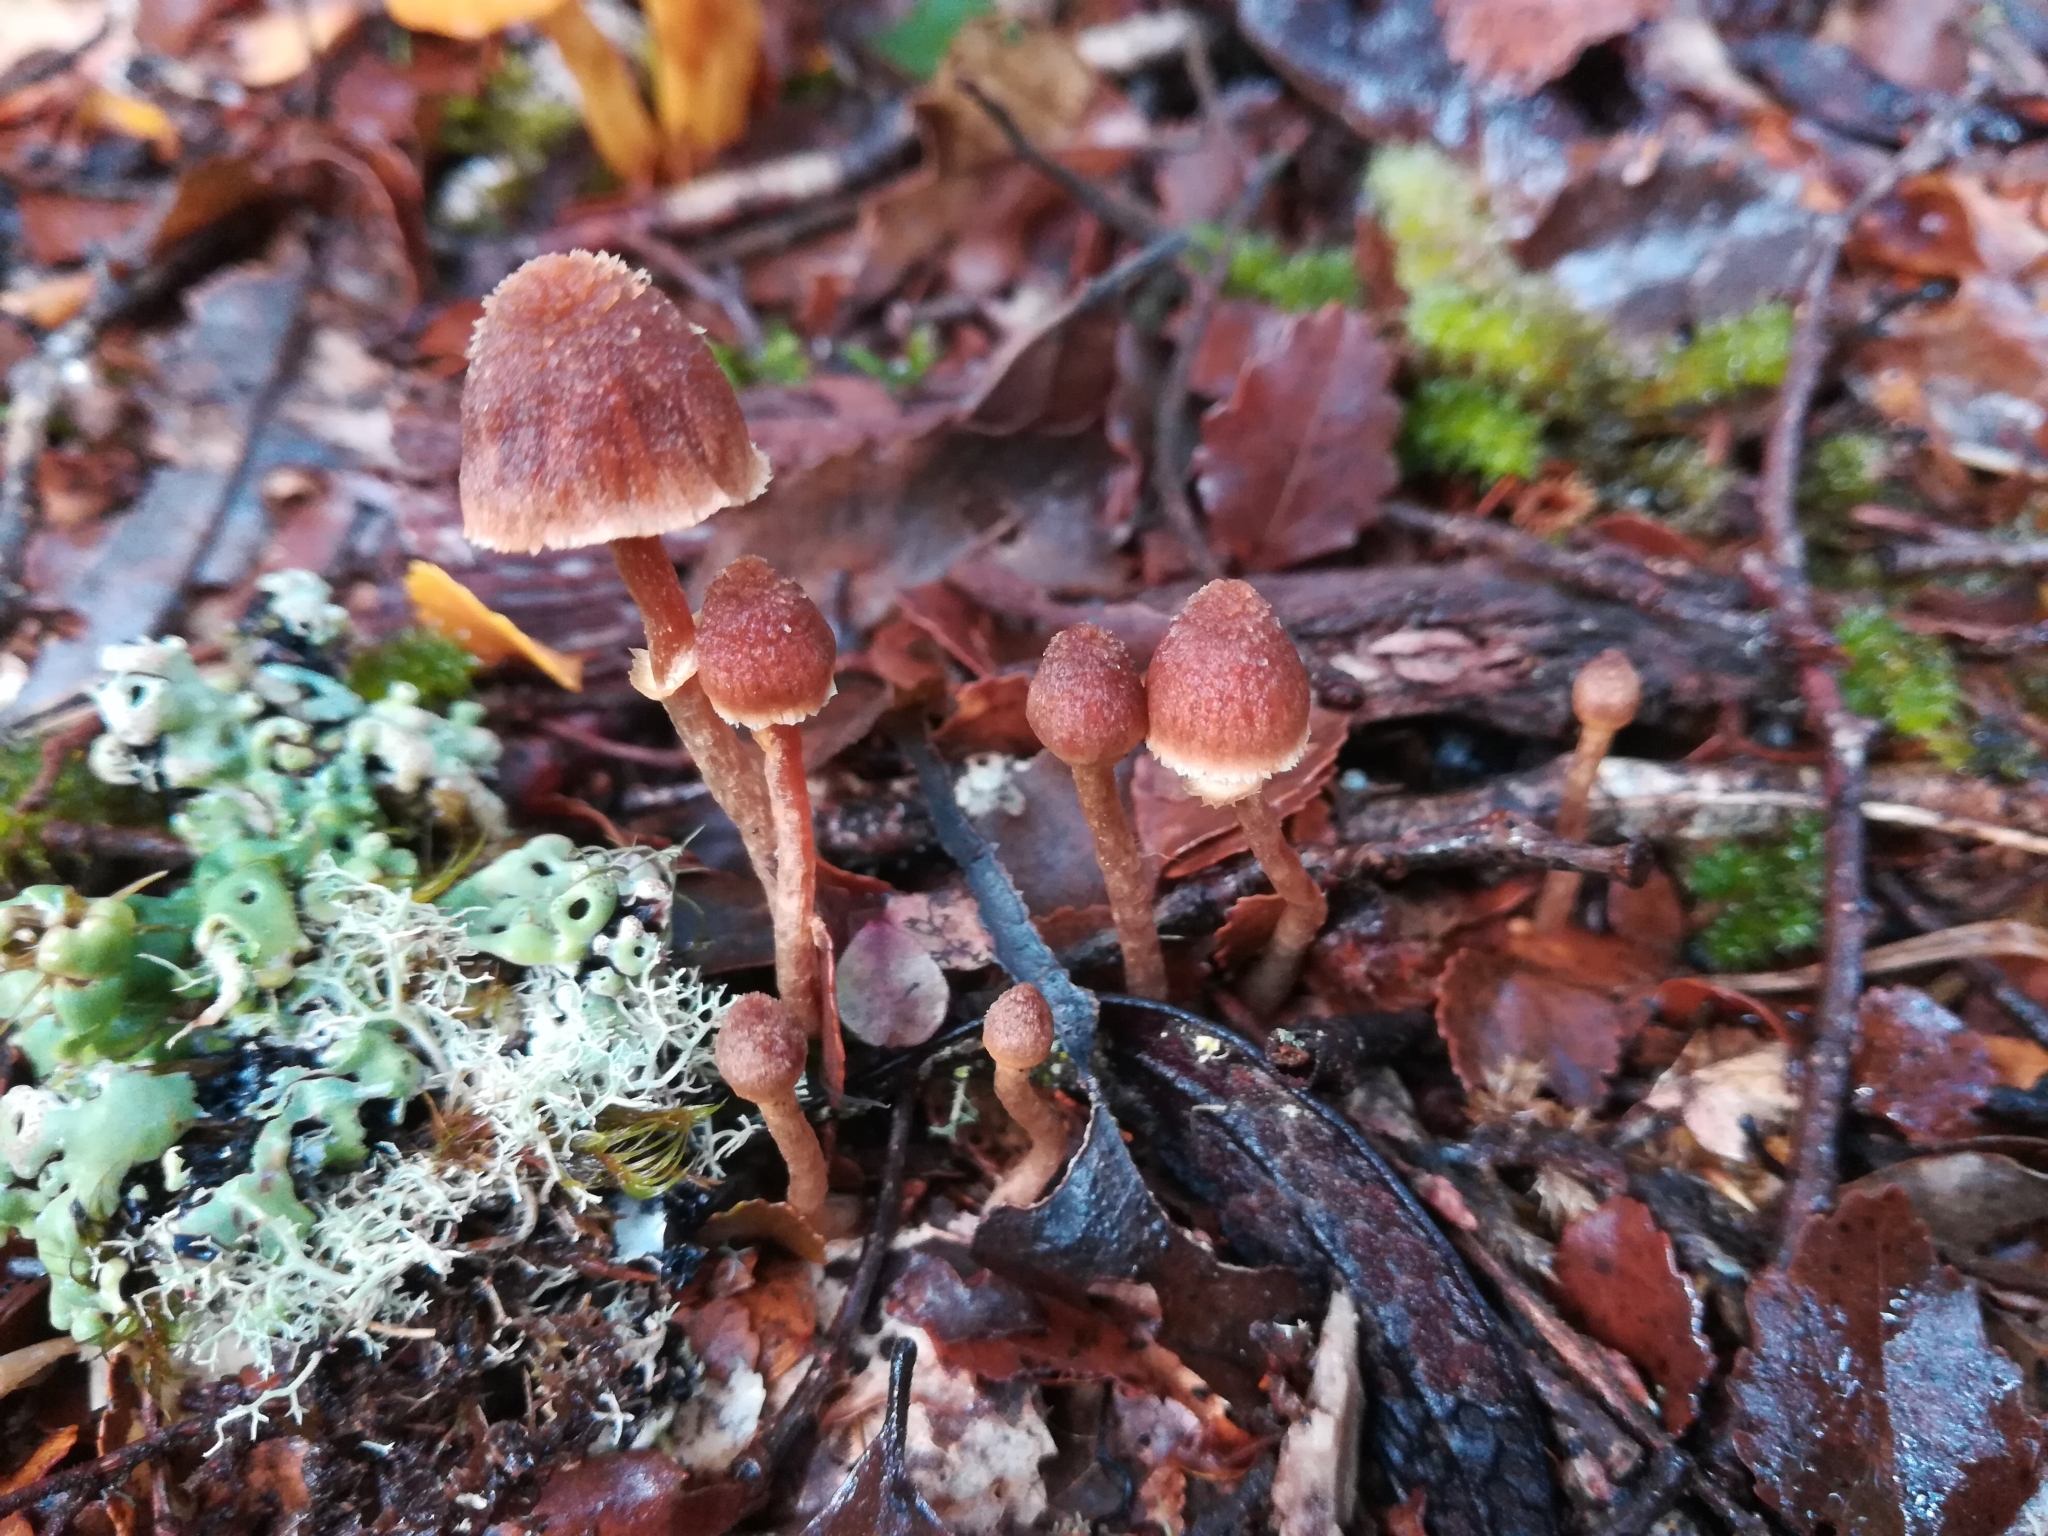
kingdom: Fungi
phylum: Basidiomycota
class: Agaricomycetes
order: Agaricales
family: Cortinariaceae
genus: Cortinarius
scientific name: Cortinarius lanceolatus
